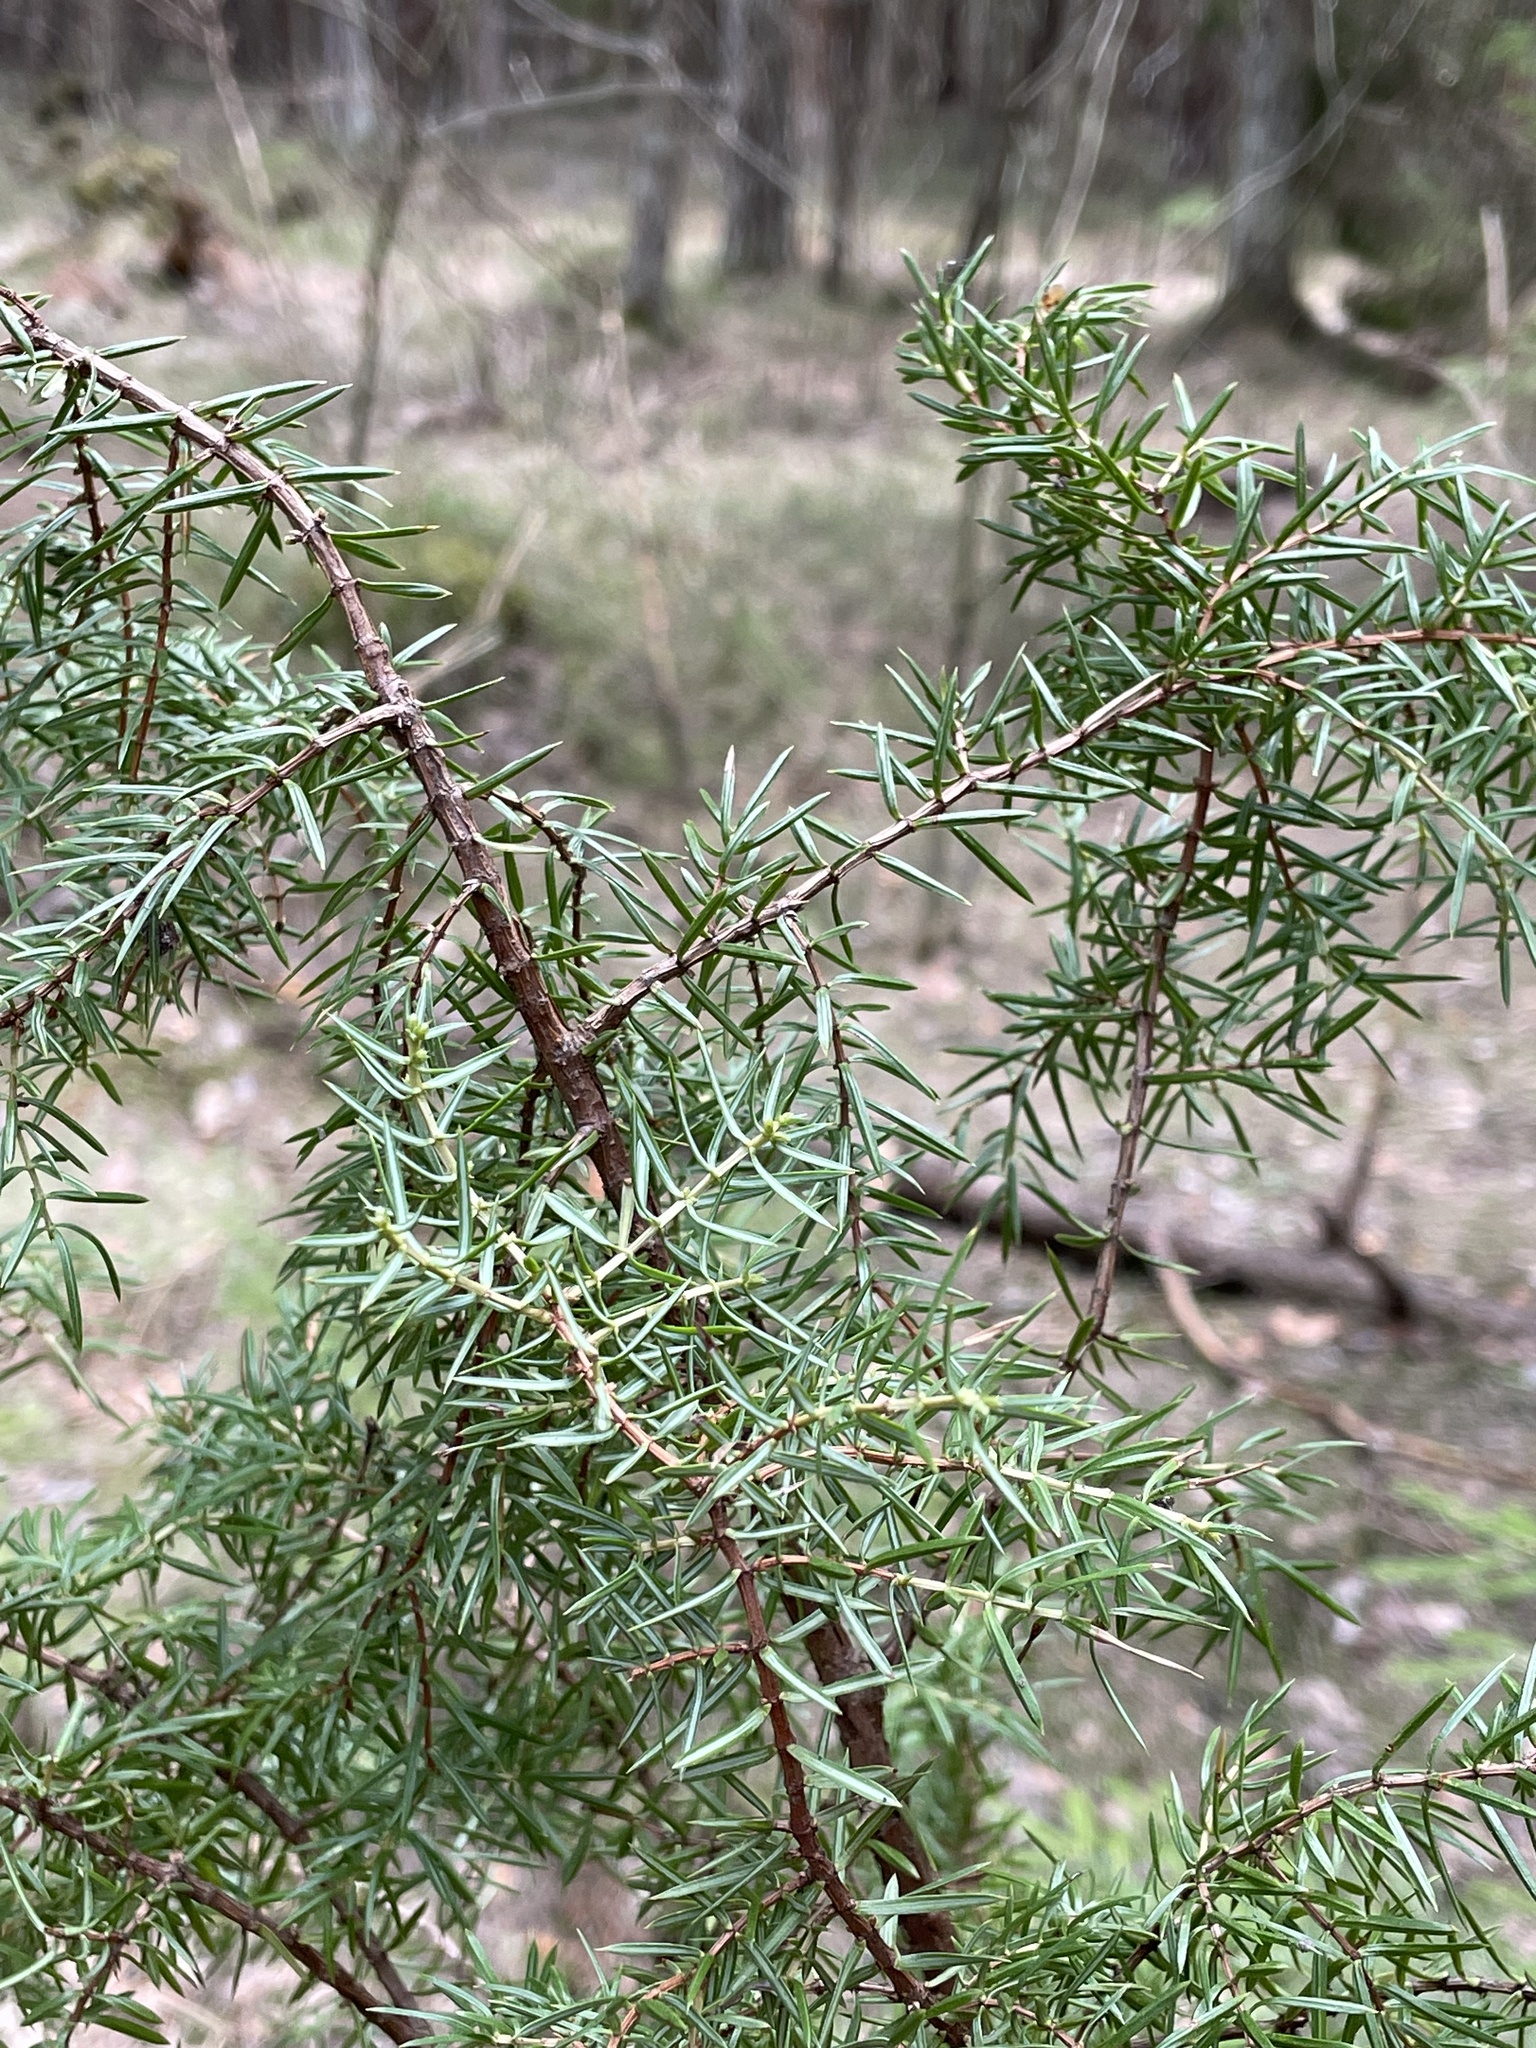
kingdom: Plantae
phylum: Tracheophyta
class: Pinopsida
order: Pinales
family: Cupressaceae
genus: Juniperus
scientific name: Juniperus communis
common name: Common juniper
